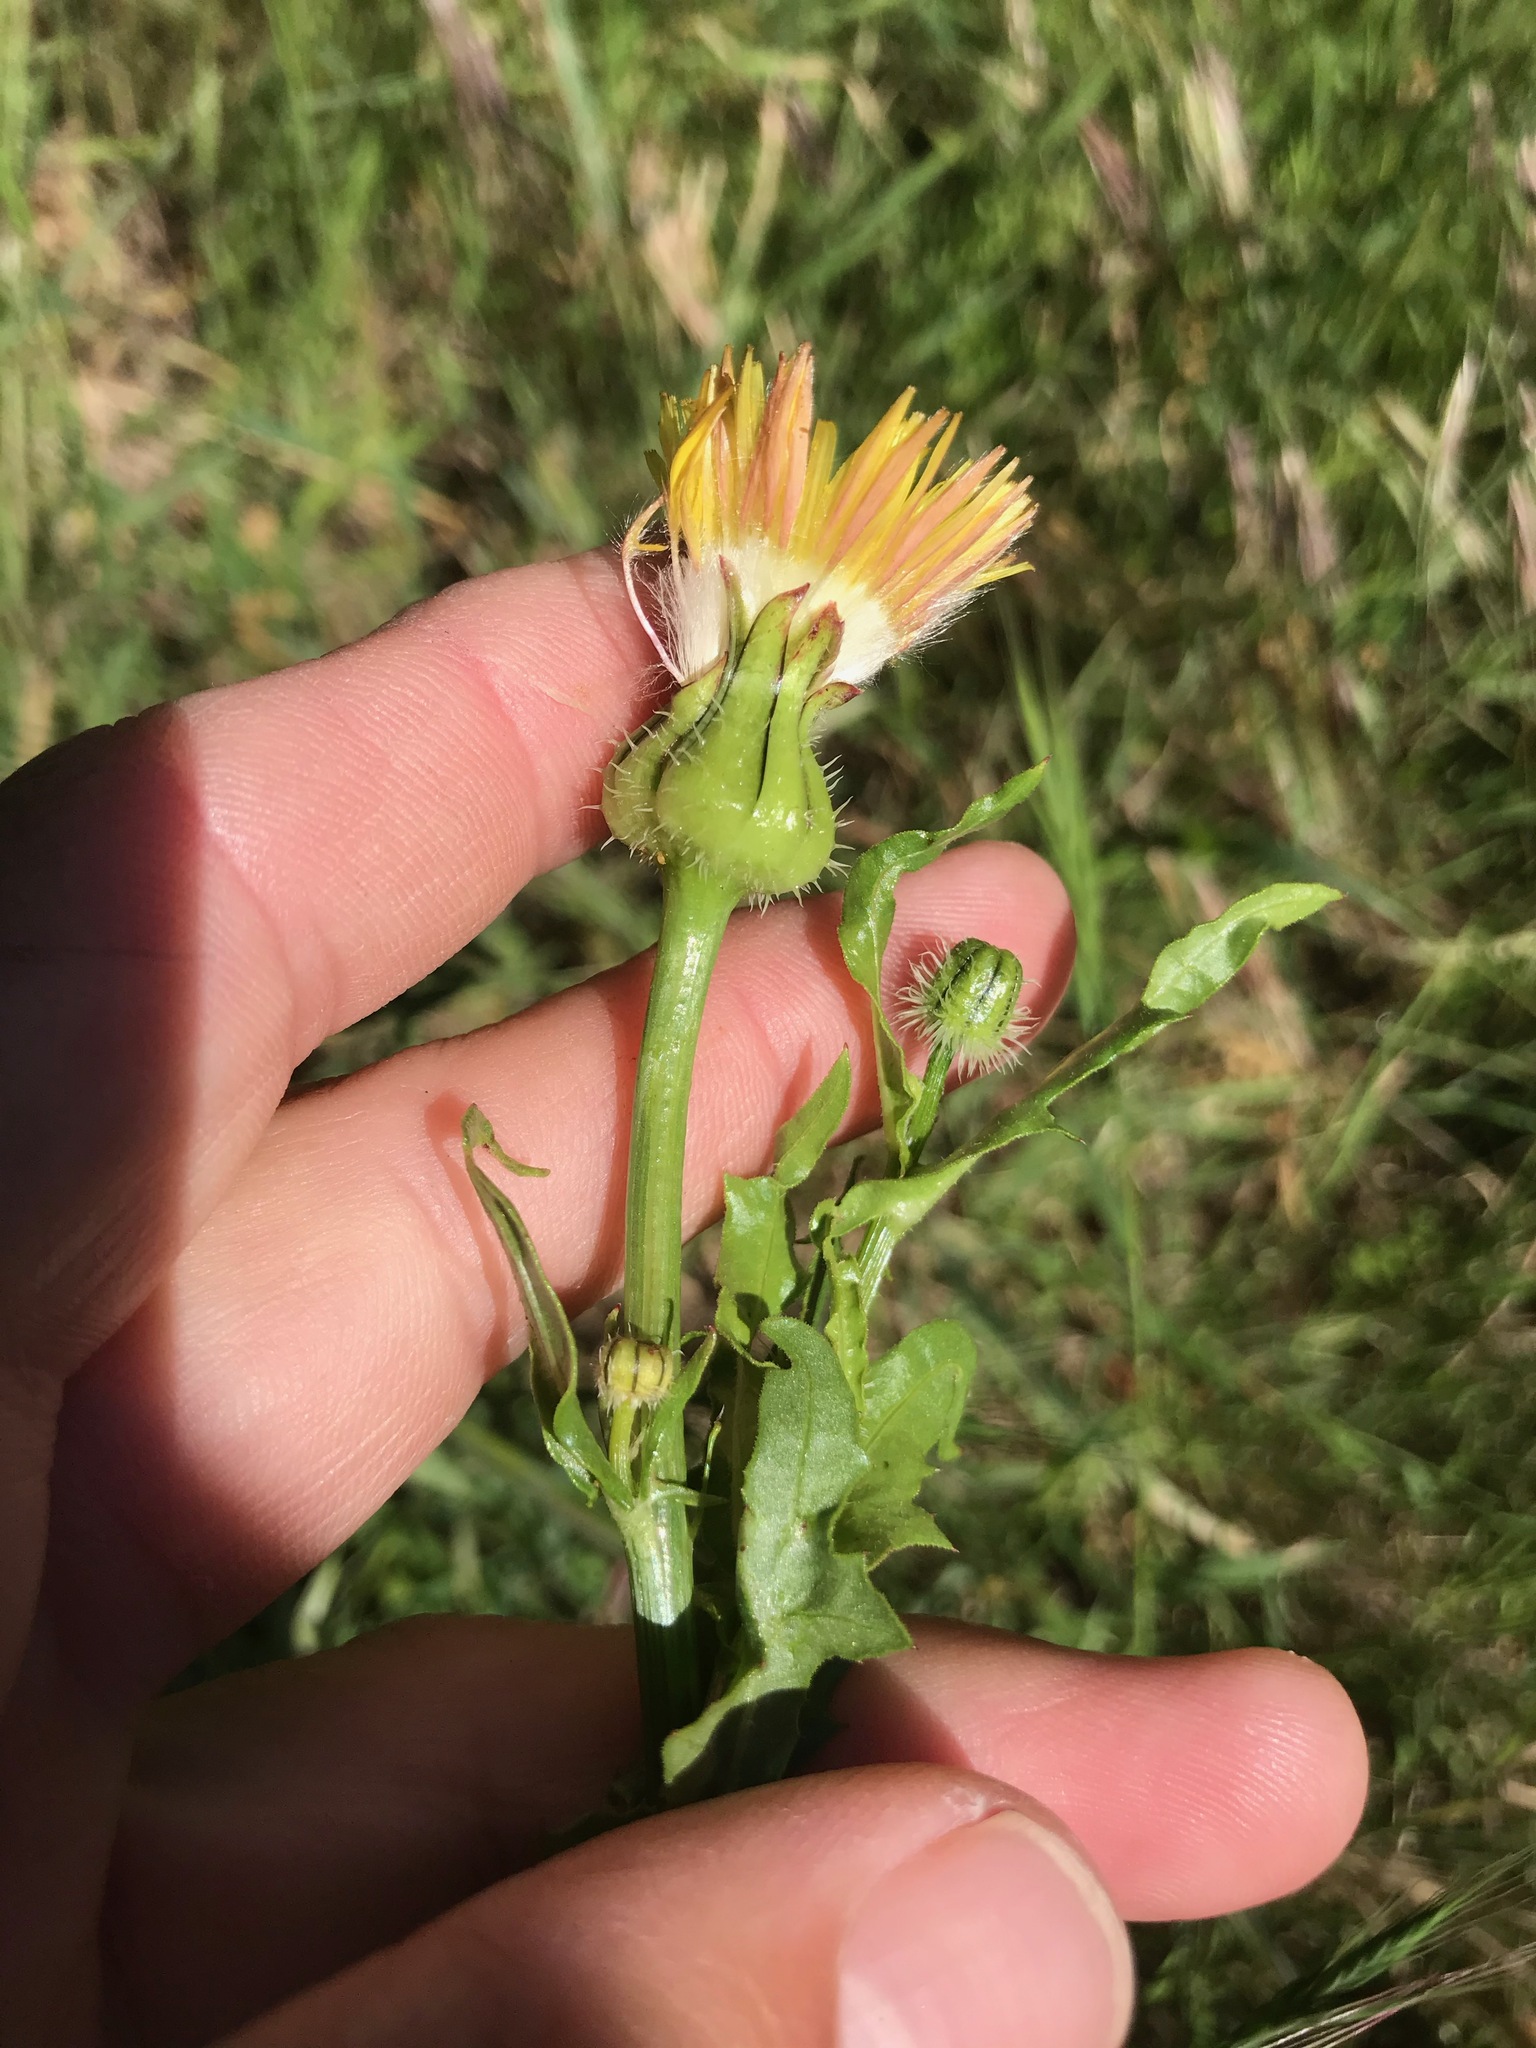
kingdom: Plantae
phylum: Tracheophyta
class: Magnoliopsida
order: Asterales
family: Asteraceae
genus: Urospermum
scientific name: Urospermum picroides
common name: False hawkbit
